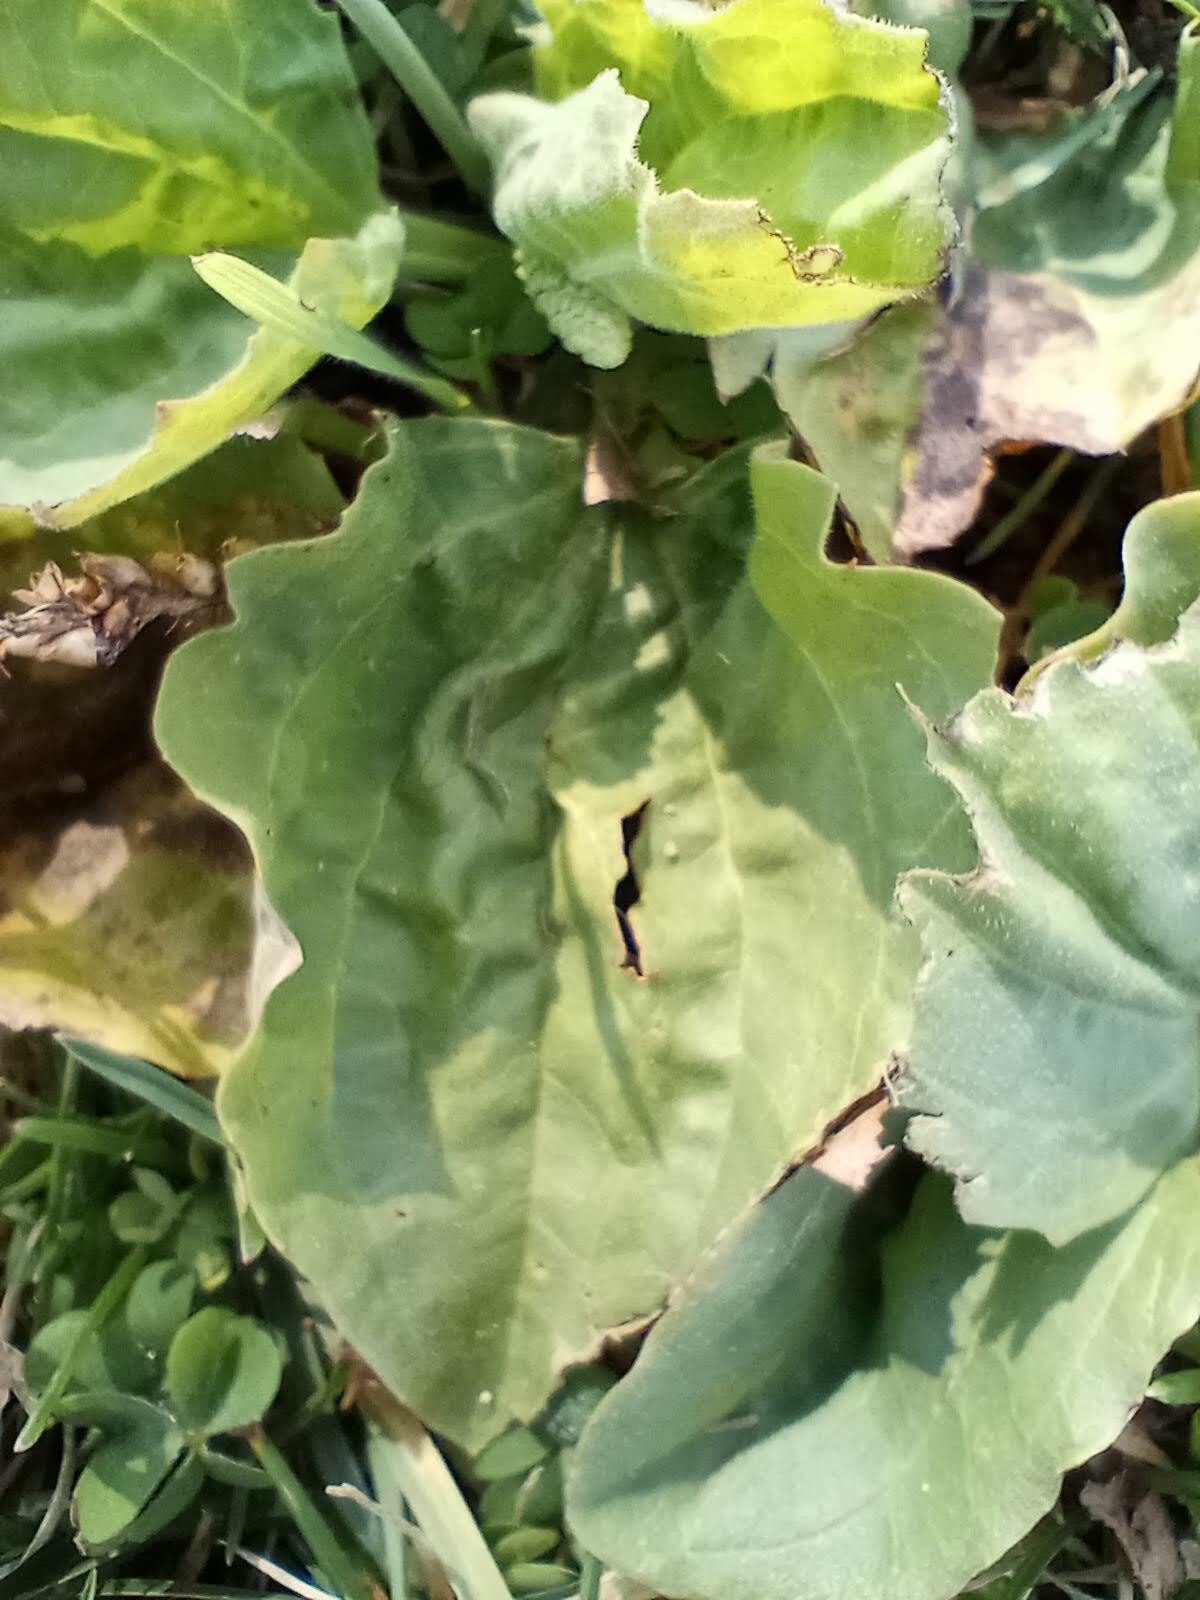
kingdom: Plantae
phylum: Tracheophyta
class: Magnoliopsida
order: Lamiales
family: Plantaginaceae
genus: Plantago
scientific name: Plantago major
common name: Common plantain
